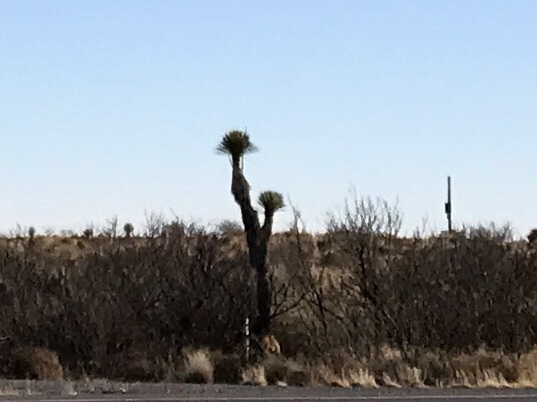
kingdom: Plantae
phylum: Tracheophyta
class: Liliopsida
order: Asparagales
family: Asparagaceae
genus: Yucca
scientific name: Yucca elata
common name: Palmella
